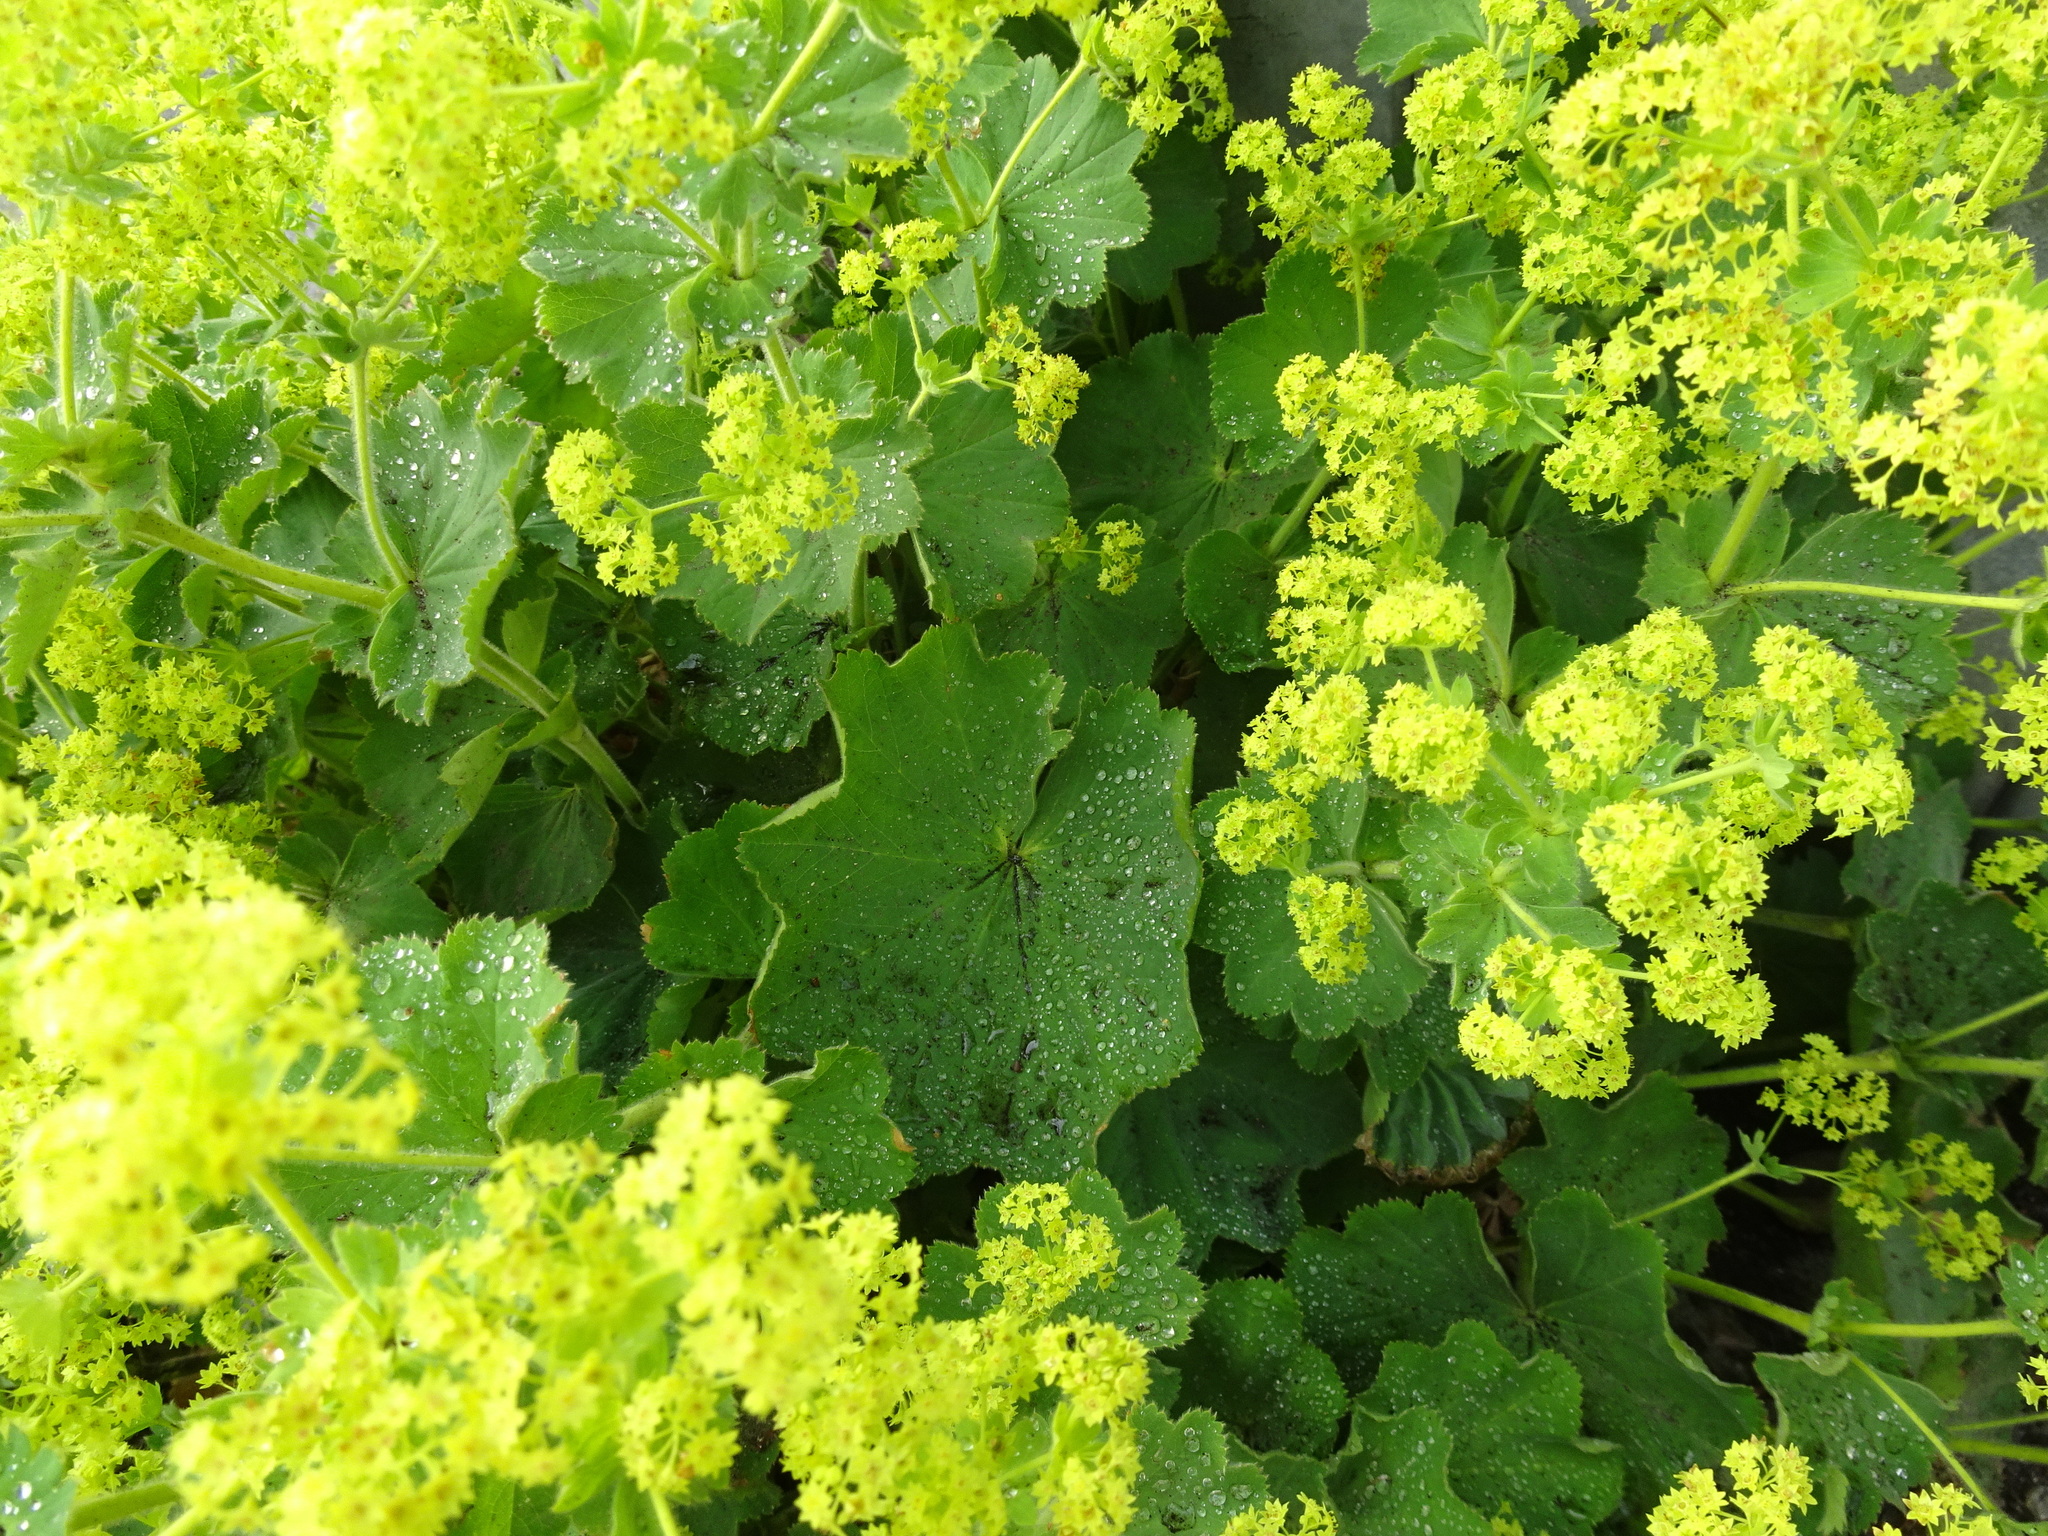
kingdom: Plantae
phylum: Tracheophyta
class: Magnoliopsida
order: Rosales
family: Rosaceae
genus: Alchemilla
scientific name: Alchemilla mollis
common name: Lady's-mantle
